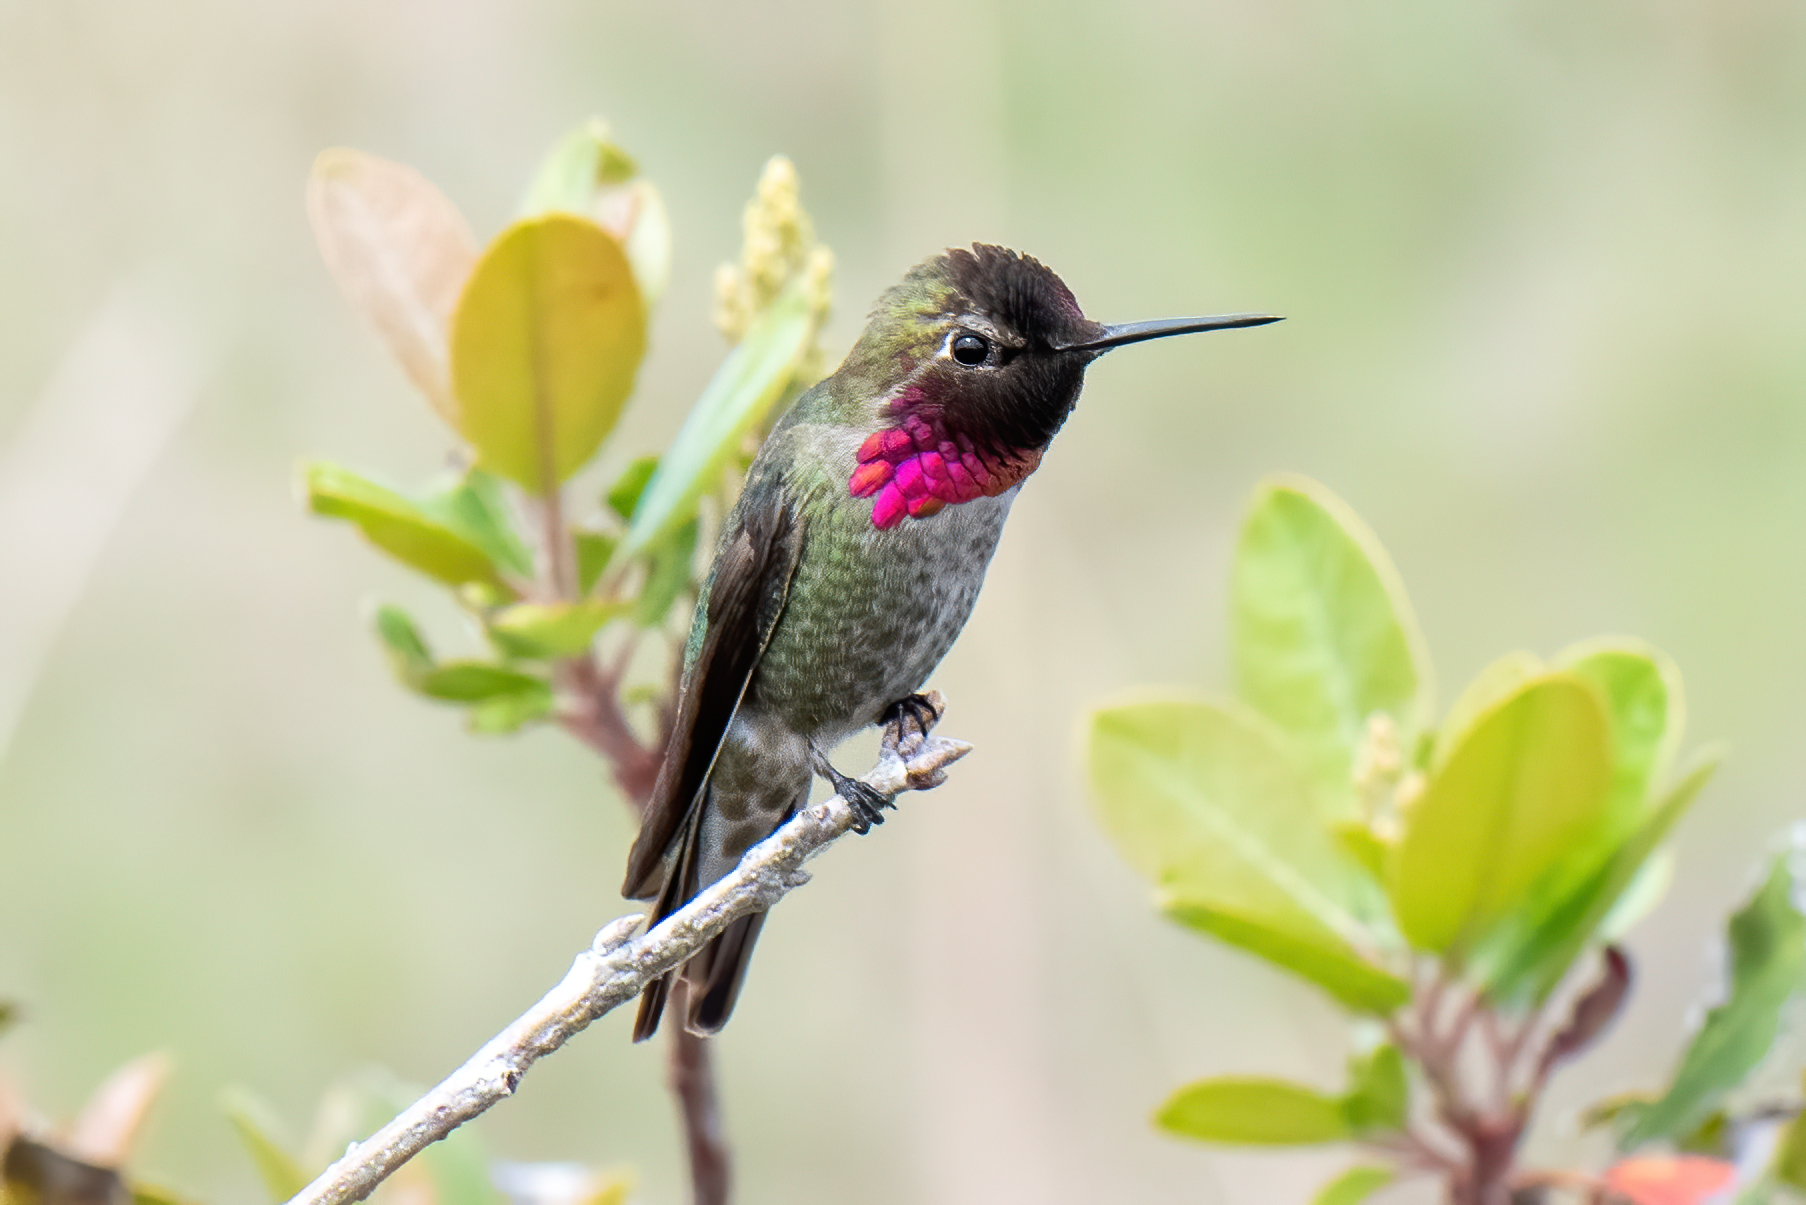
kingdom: Animalia
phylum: Chordata
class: Aves
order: Apodiformes
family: Trochilidae
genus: Calypte
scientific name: Calypte anna
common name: Anna's hummingbird
